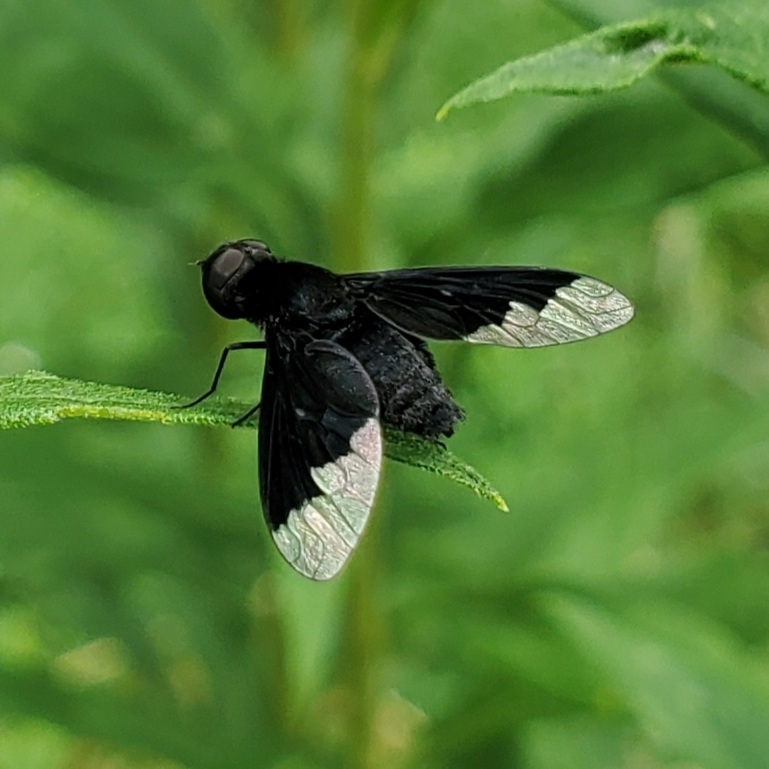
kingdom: Animalia
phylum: Arthropoda
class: Insecta
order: Diptera
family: Bombyliidae
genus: Anthrax
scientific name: Anthrax analis
